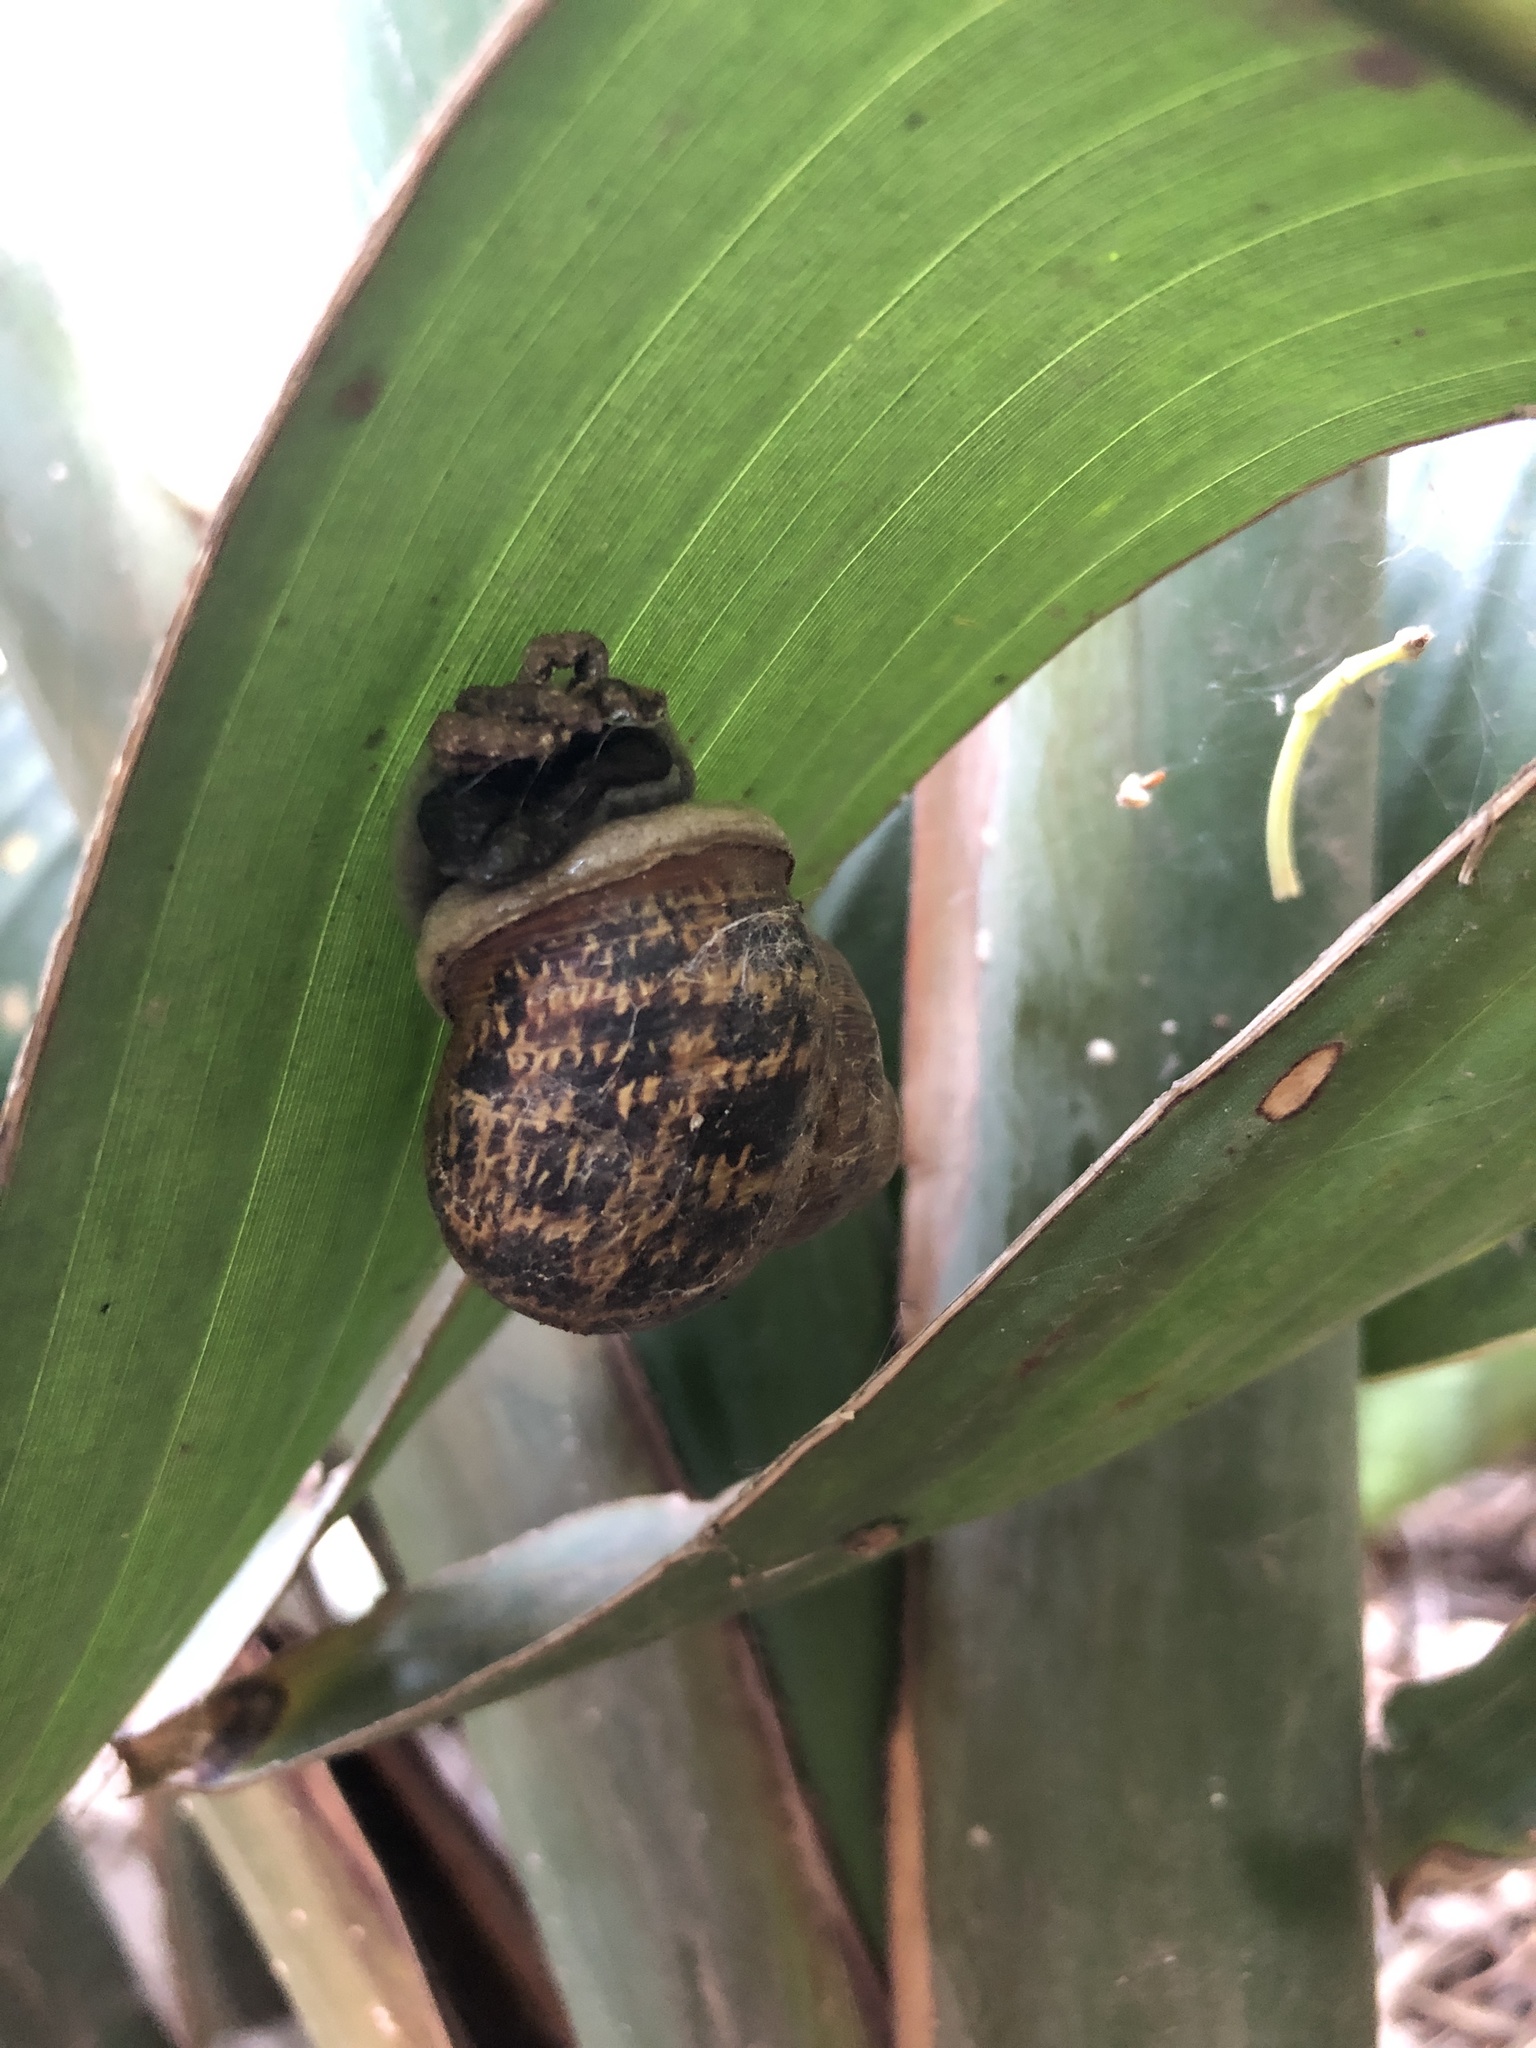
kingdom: Animalia
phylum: Mollusca
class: Gastropoda
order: Stylommatophora
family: Helicidae
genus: Cornu
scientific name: Cornu aspersum
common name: Brown garden snail
